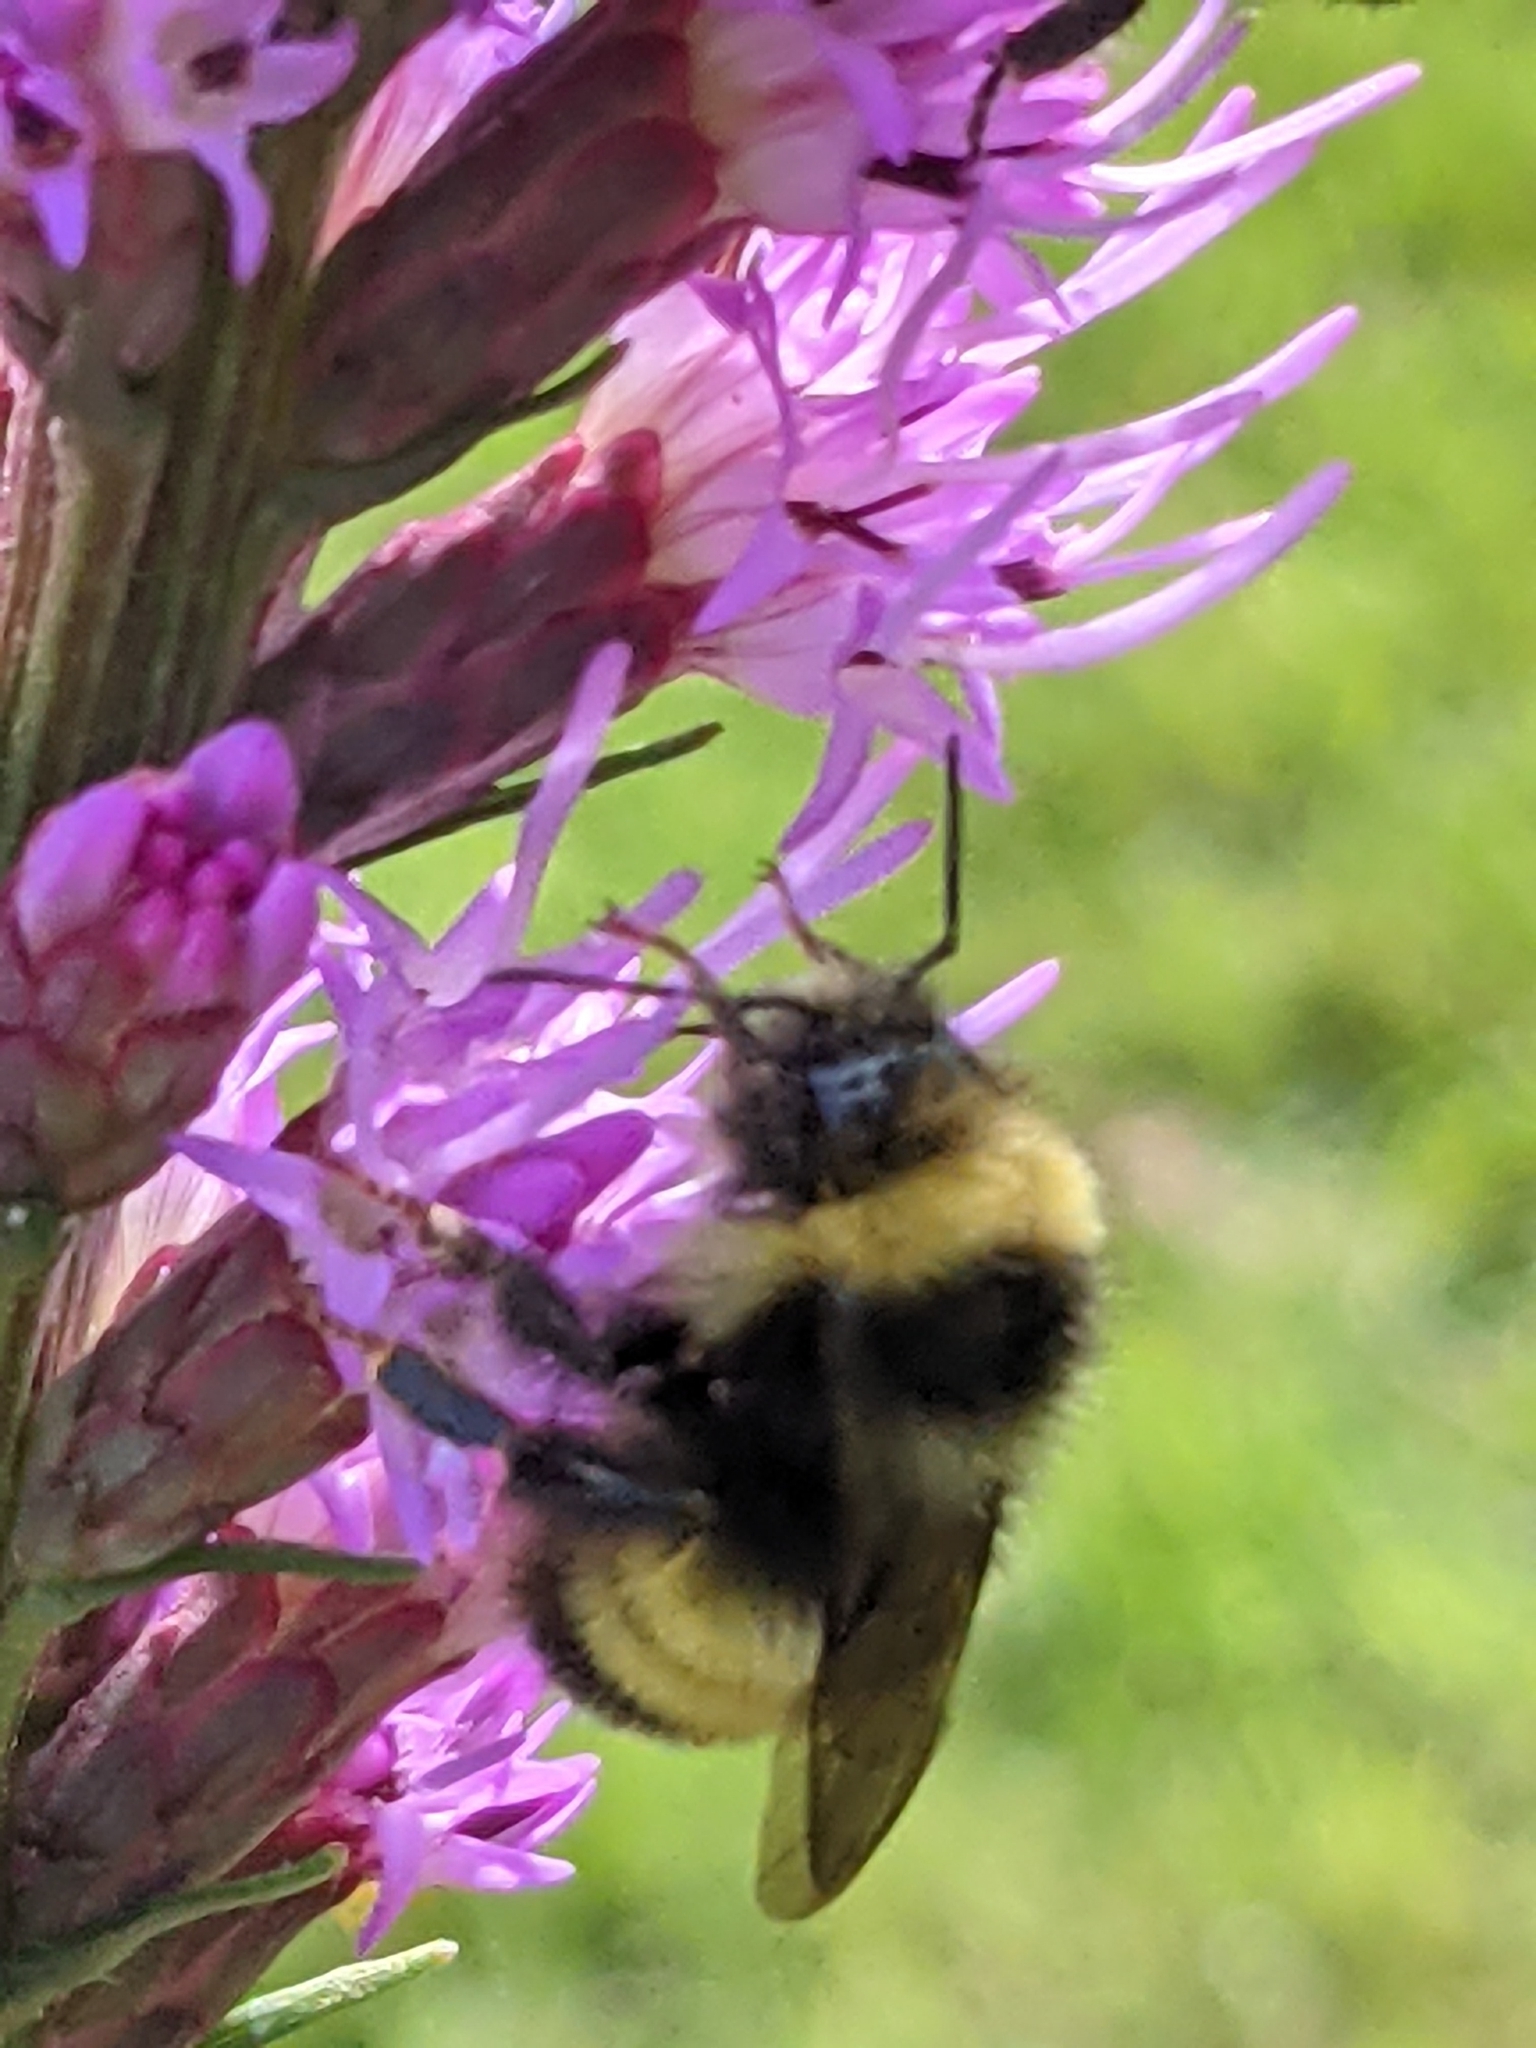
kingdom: Animalia
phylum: Arthropoda
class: Insecta
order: Hymenoptera
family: Apidae
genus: Bombus
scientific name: Bombus terricola
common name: Yellow-banded bumble bee
